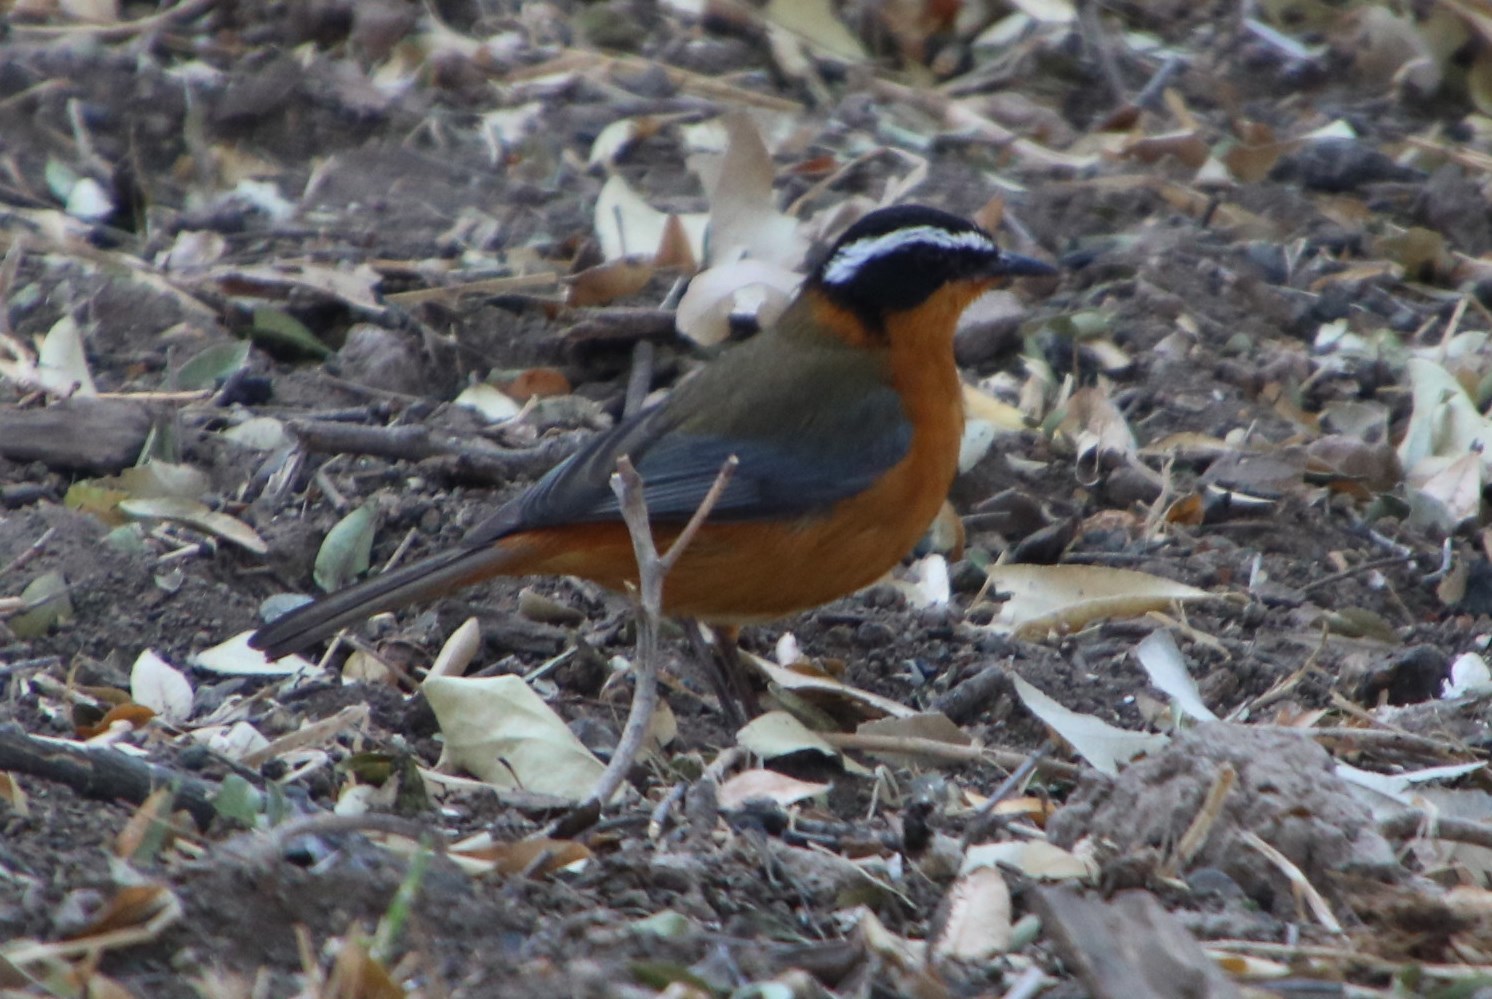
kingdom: Animalia
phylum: Chordata
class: Aves
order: Passeriformes
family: Muscicapidae
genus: Cossypha
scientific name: Cossypha heuglini
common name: White-browed robin-chat
